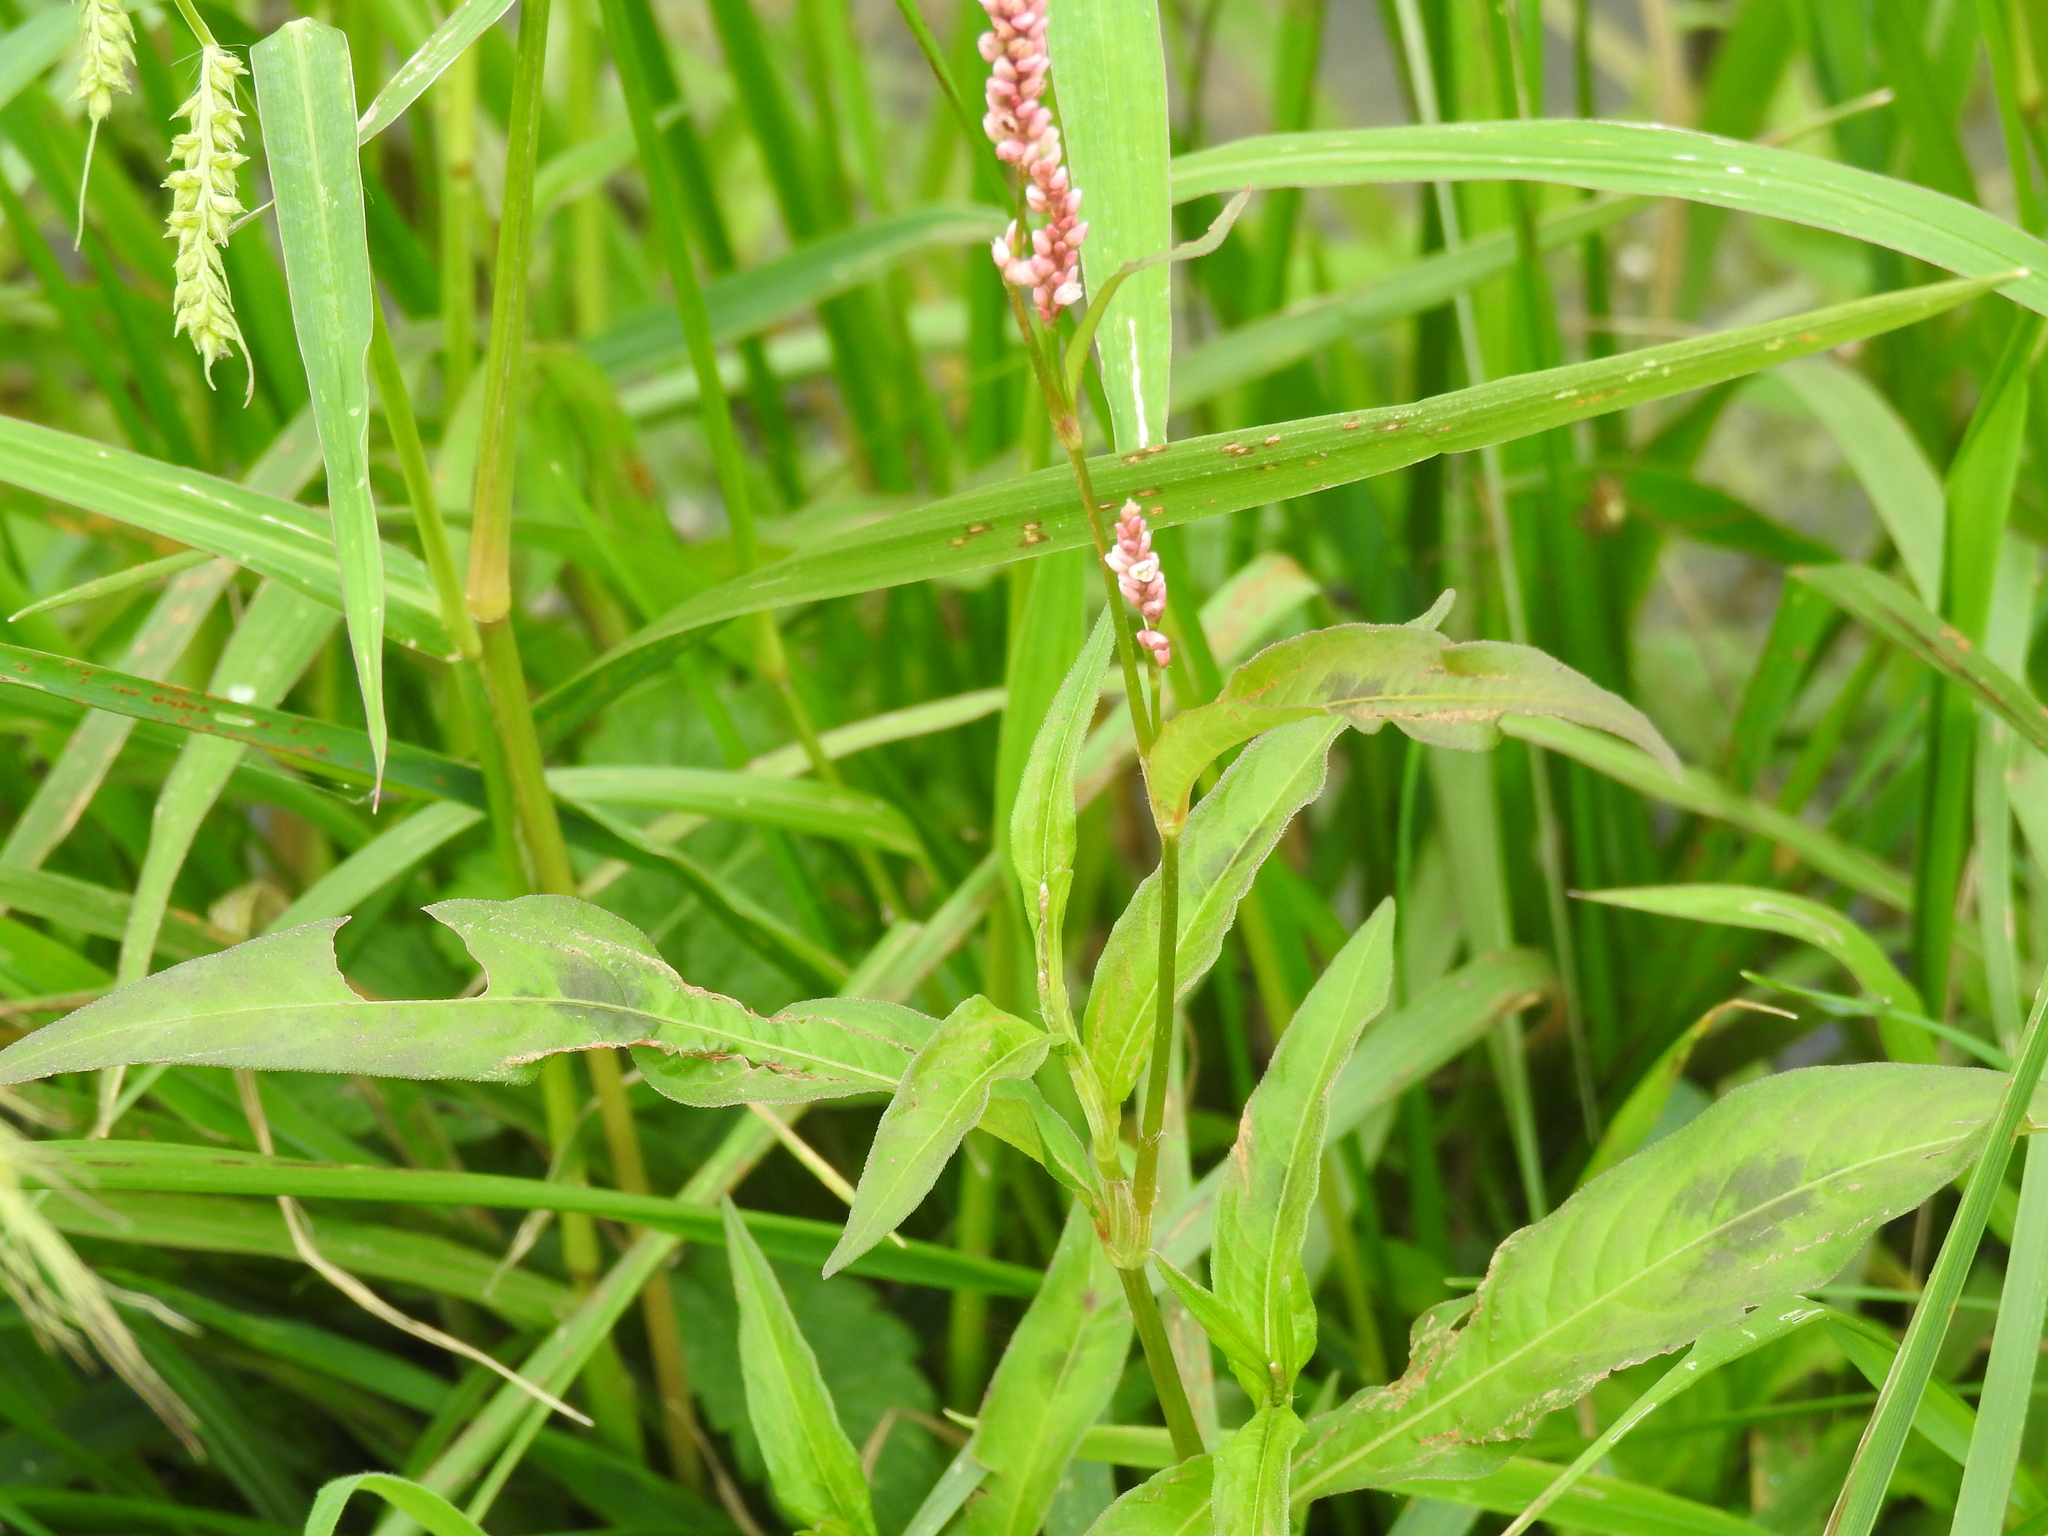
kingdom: Plantae
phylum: Tracheophyta
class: Magnoliopsida
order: Caryophyllales
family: Polygonaceae
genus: Persicaria
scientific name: Persicaria maculosa
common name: Redshank
